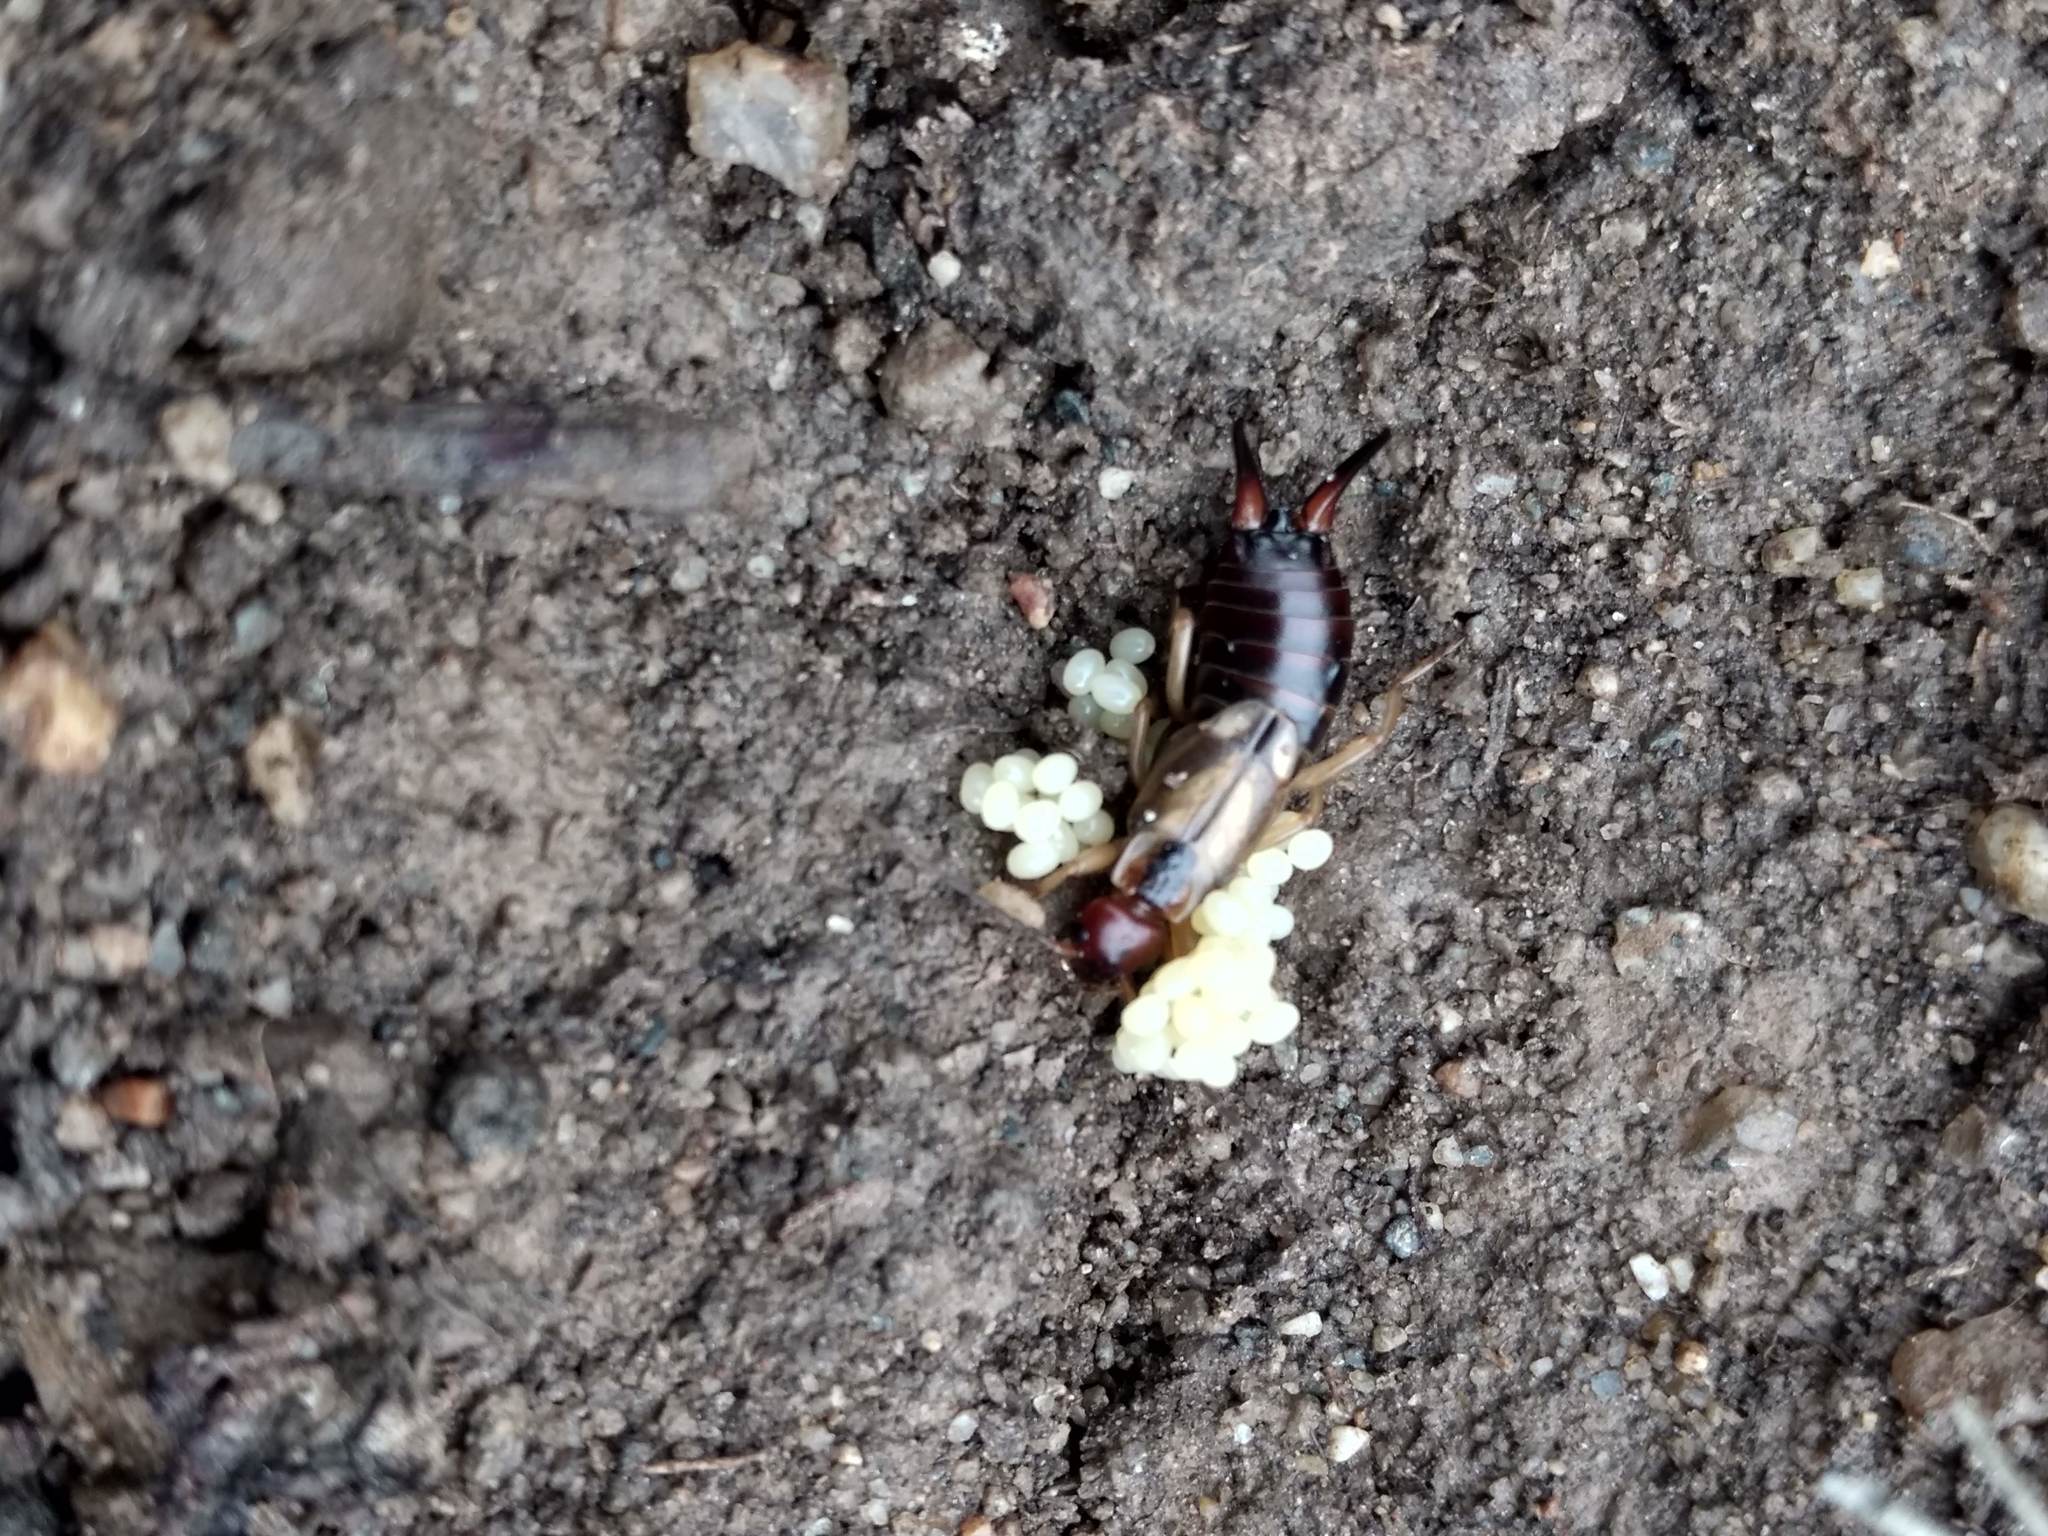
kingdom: Animalia
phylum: Arthropoda
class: Insecta
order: Dermaptera
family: Forficulidae
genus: Forficula
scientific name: Forficula
